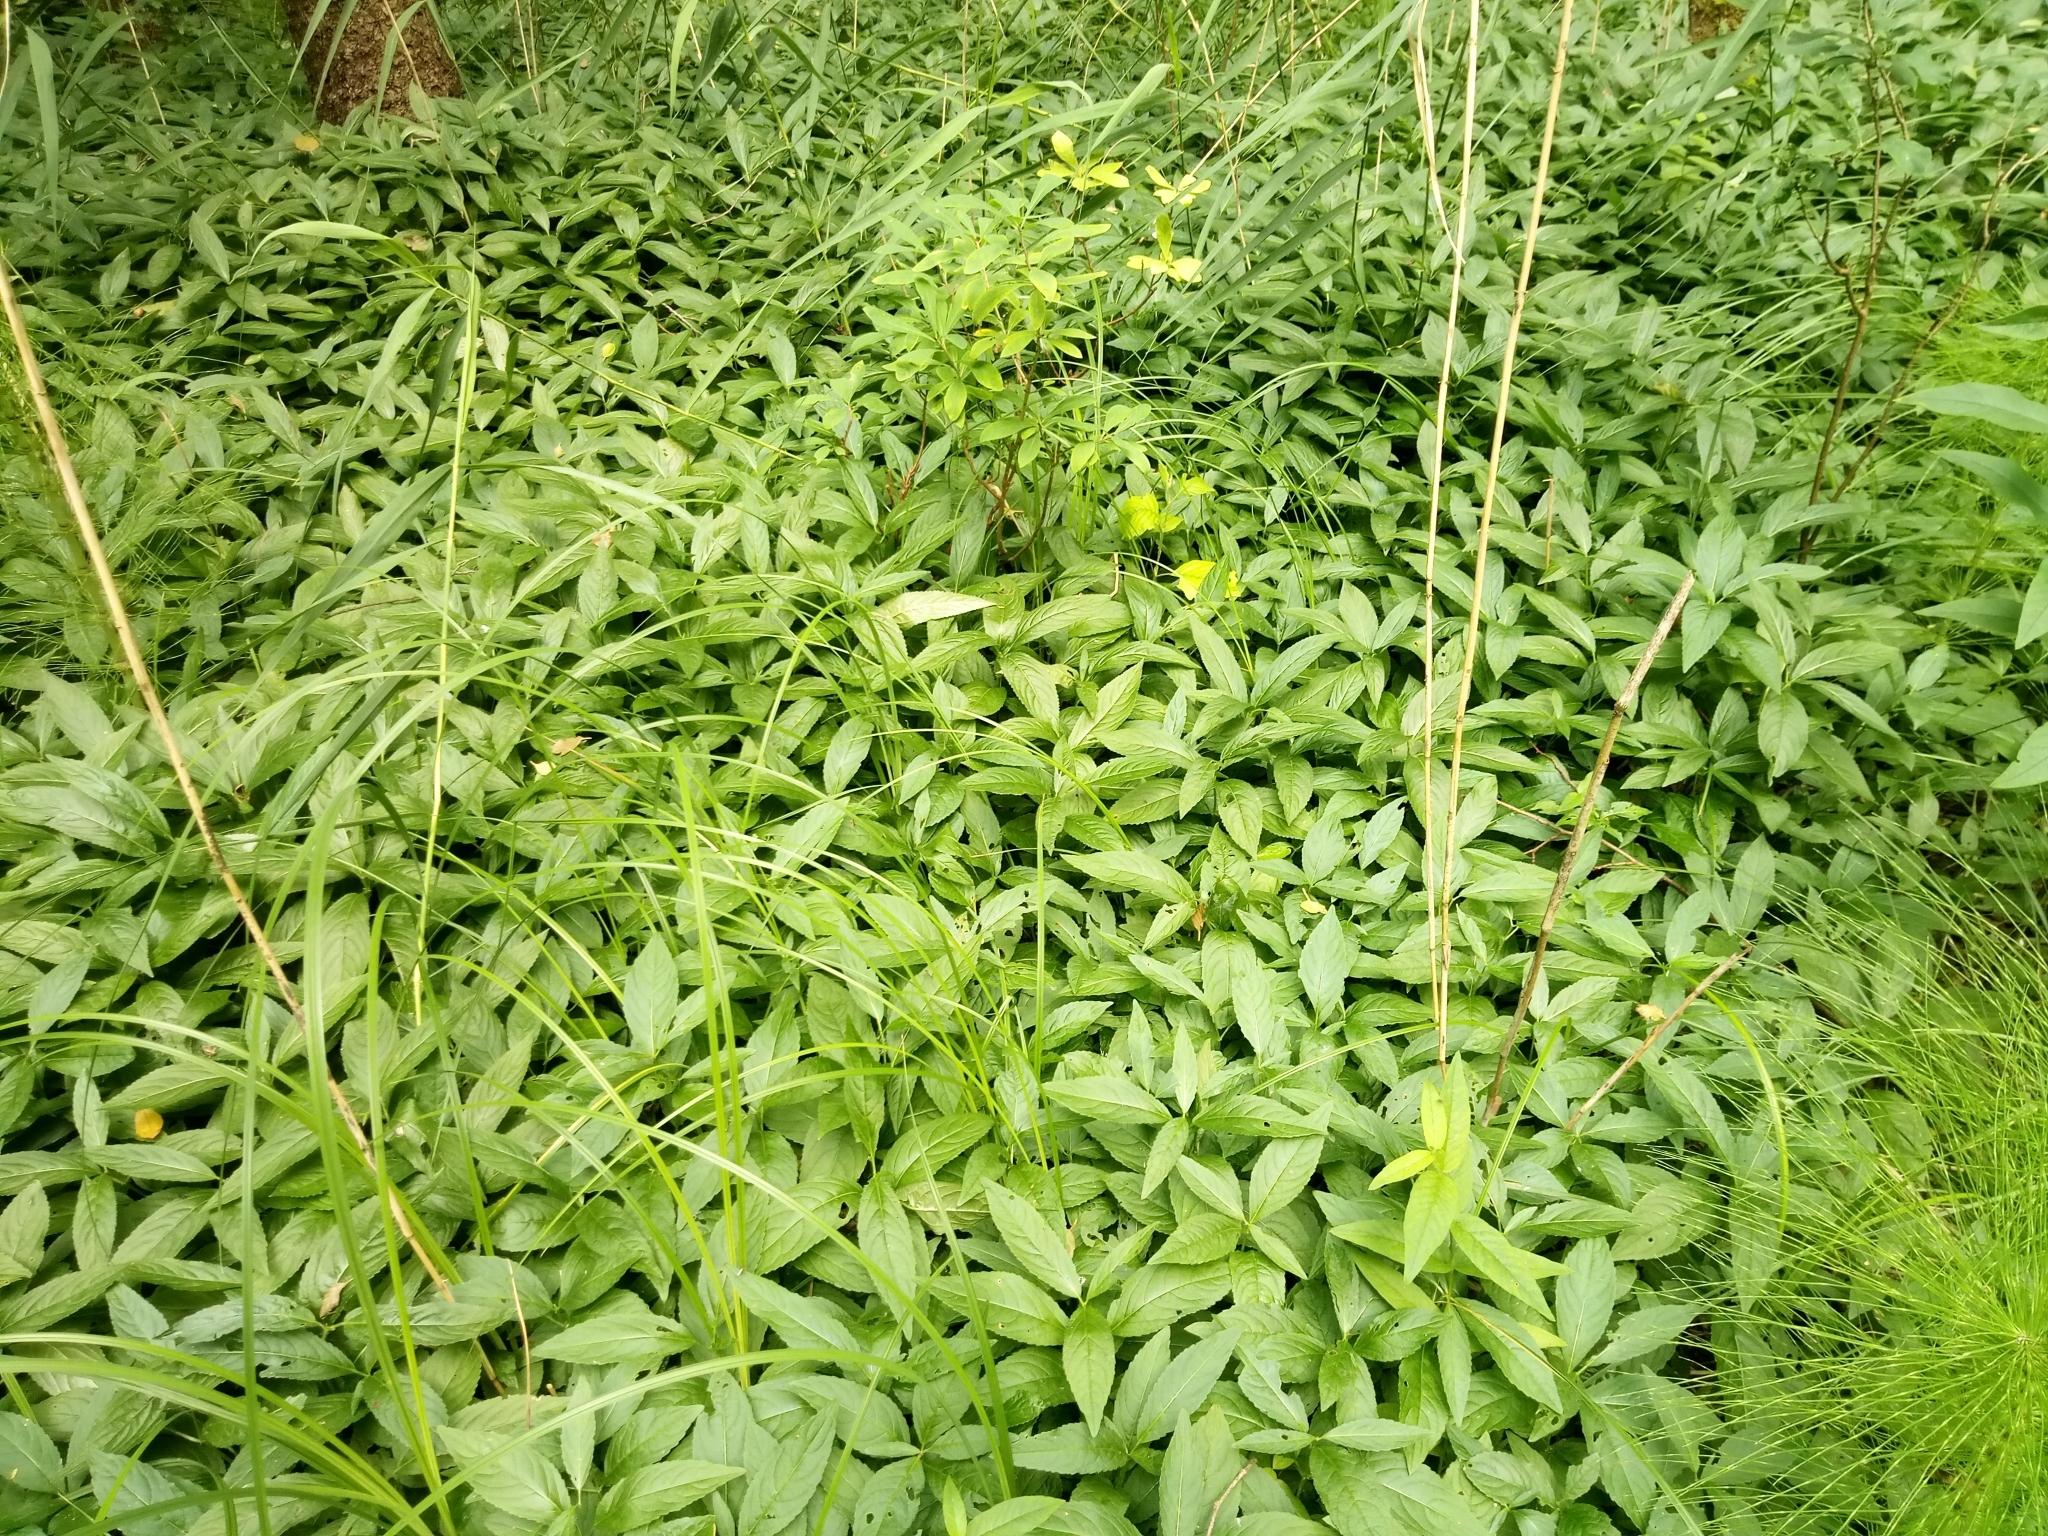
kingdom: Plantae
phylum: Tracheophyta
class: Magnoliopsida
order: Malpighiales
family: Euphorbiaceae
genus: Mercurialis
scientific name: Mercurialis perennis
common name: Dog mercury
